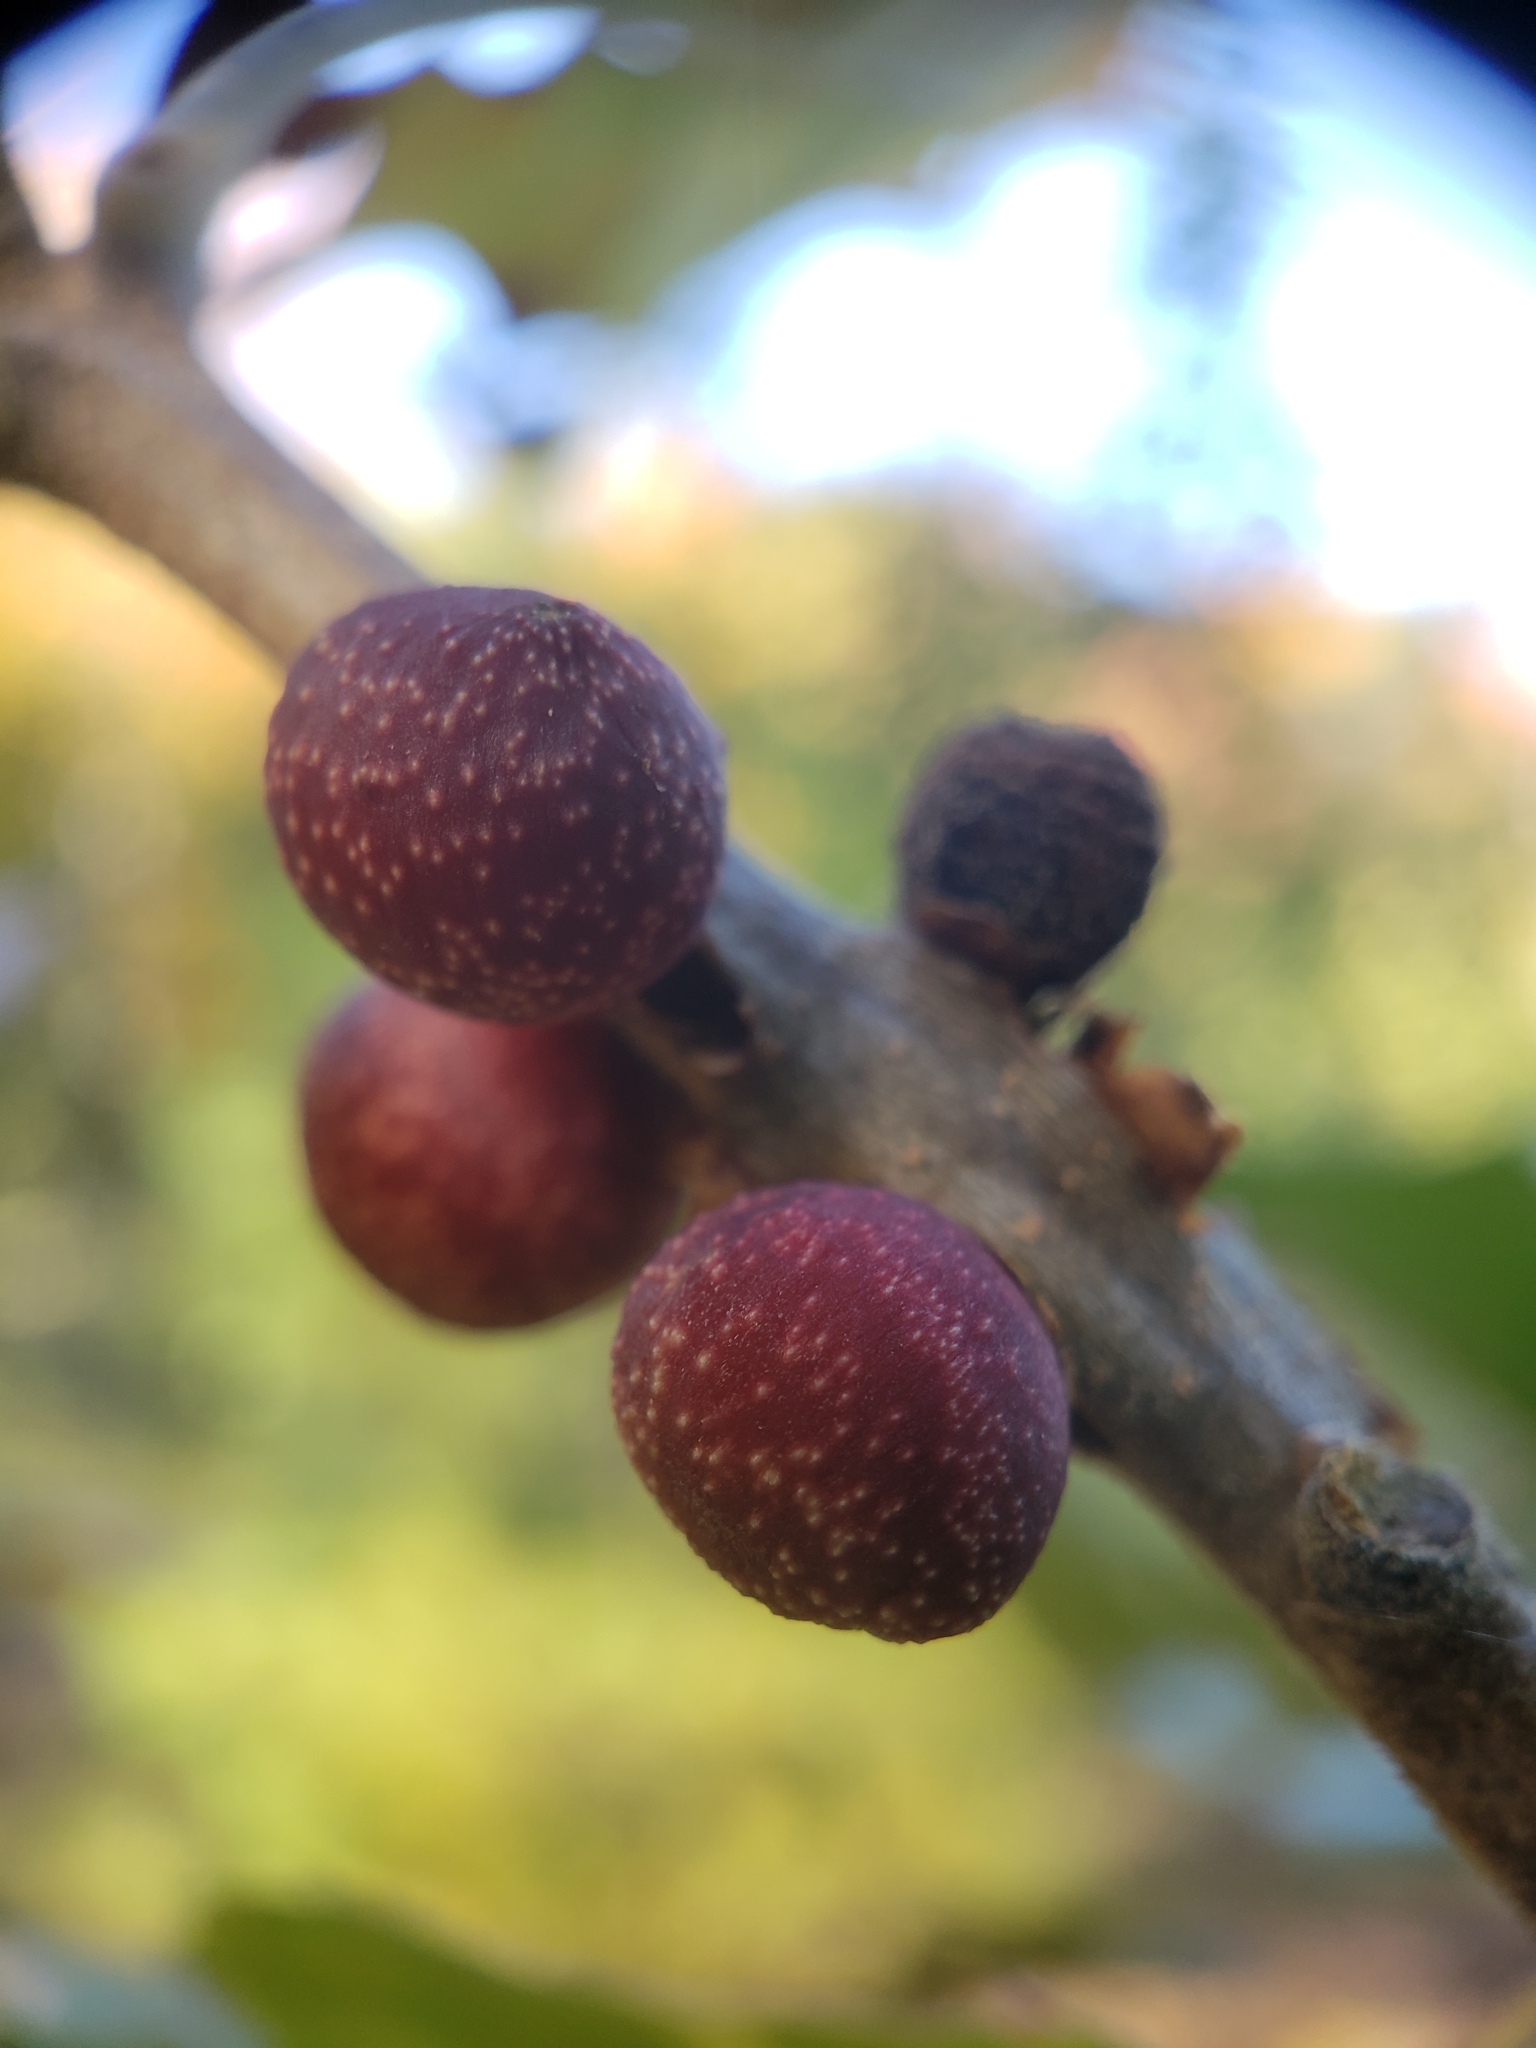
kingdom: Animalia
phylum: Arthropoda
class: Insecta
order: Hymenoptera
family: Cynipidae
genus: Kokkocynips
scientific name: Kokkocynips imbricariae
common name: Banded bullet gall wasp
